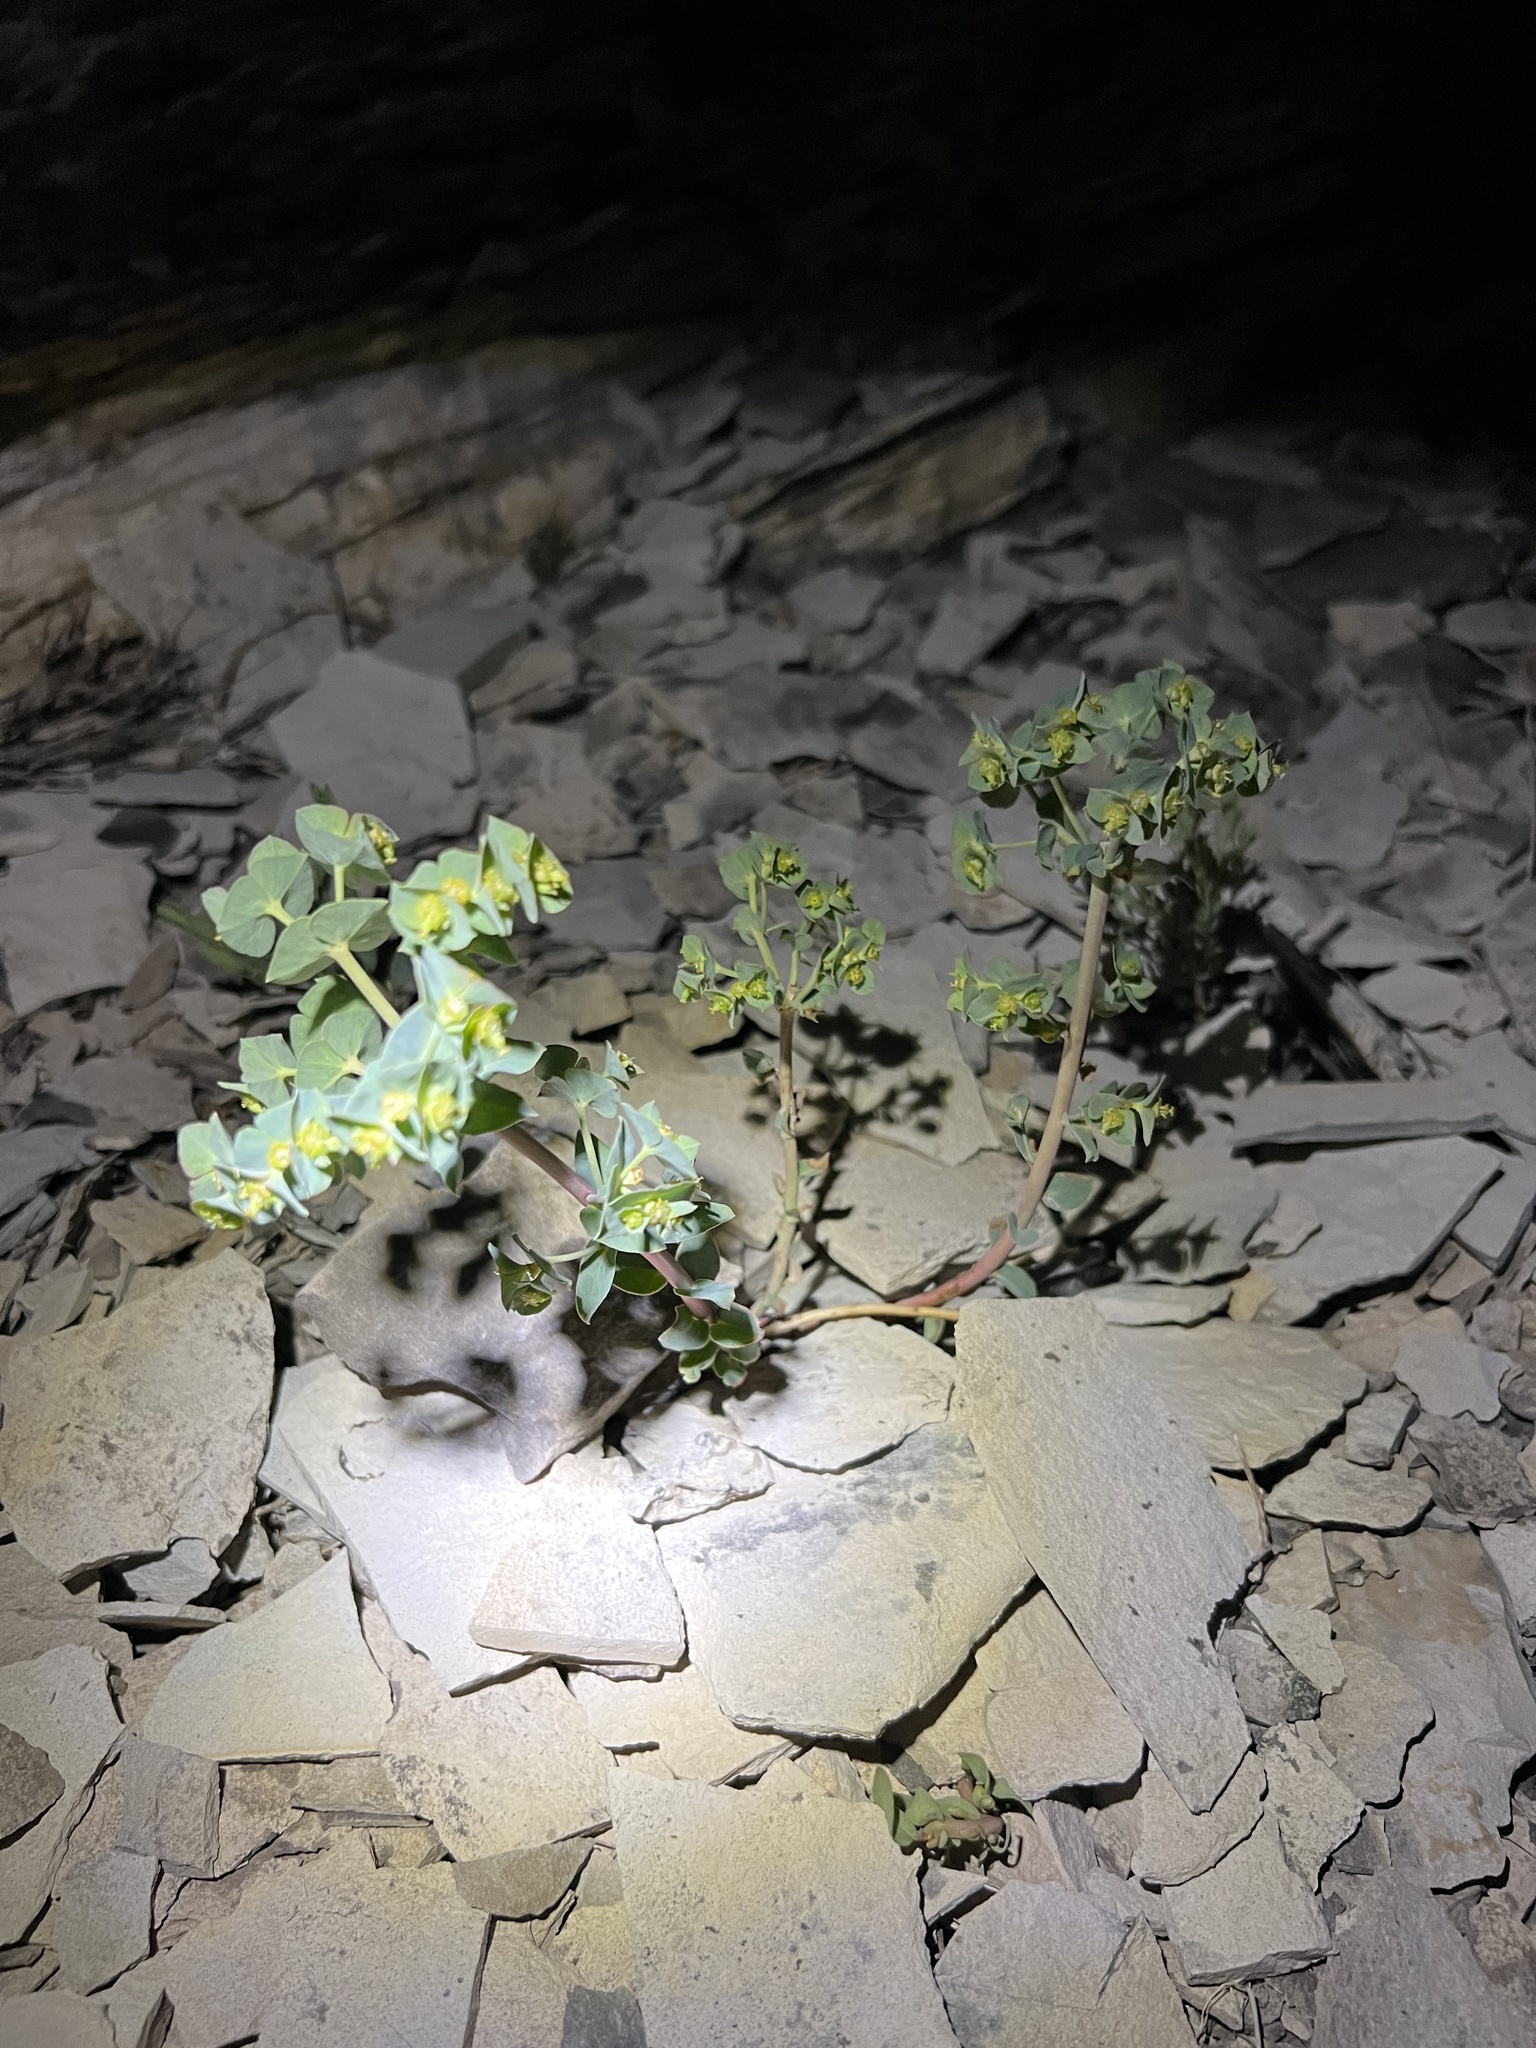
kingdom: Plantae
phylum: Tracheophyta
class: Magnoliopsida
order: Malpighiales
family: Euphorbiaceae
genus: Euphorbia
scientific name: Euphorbia brachycera
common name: Shorthorn spurge
